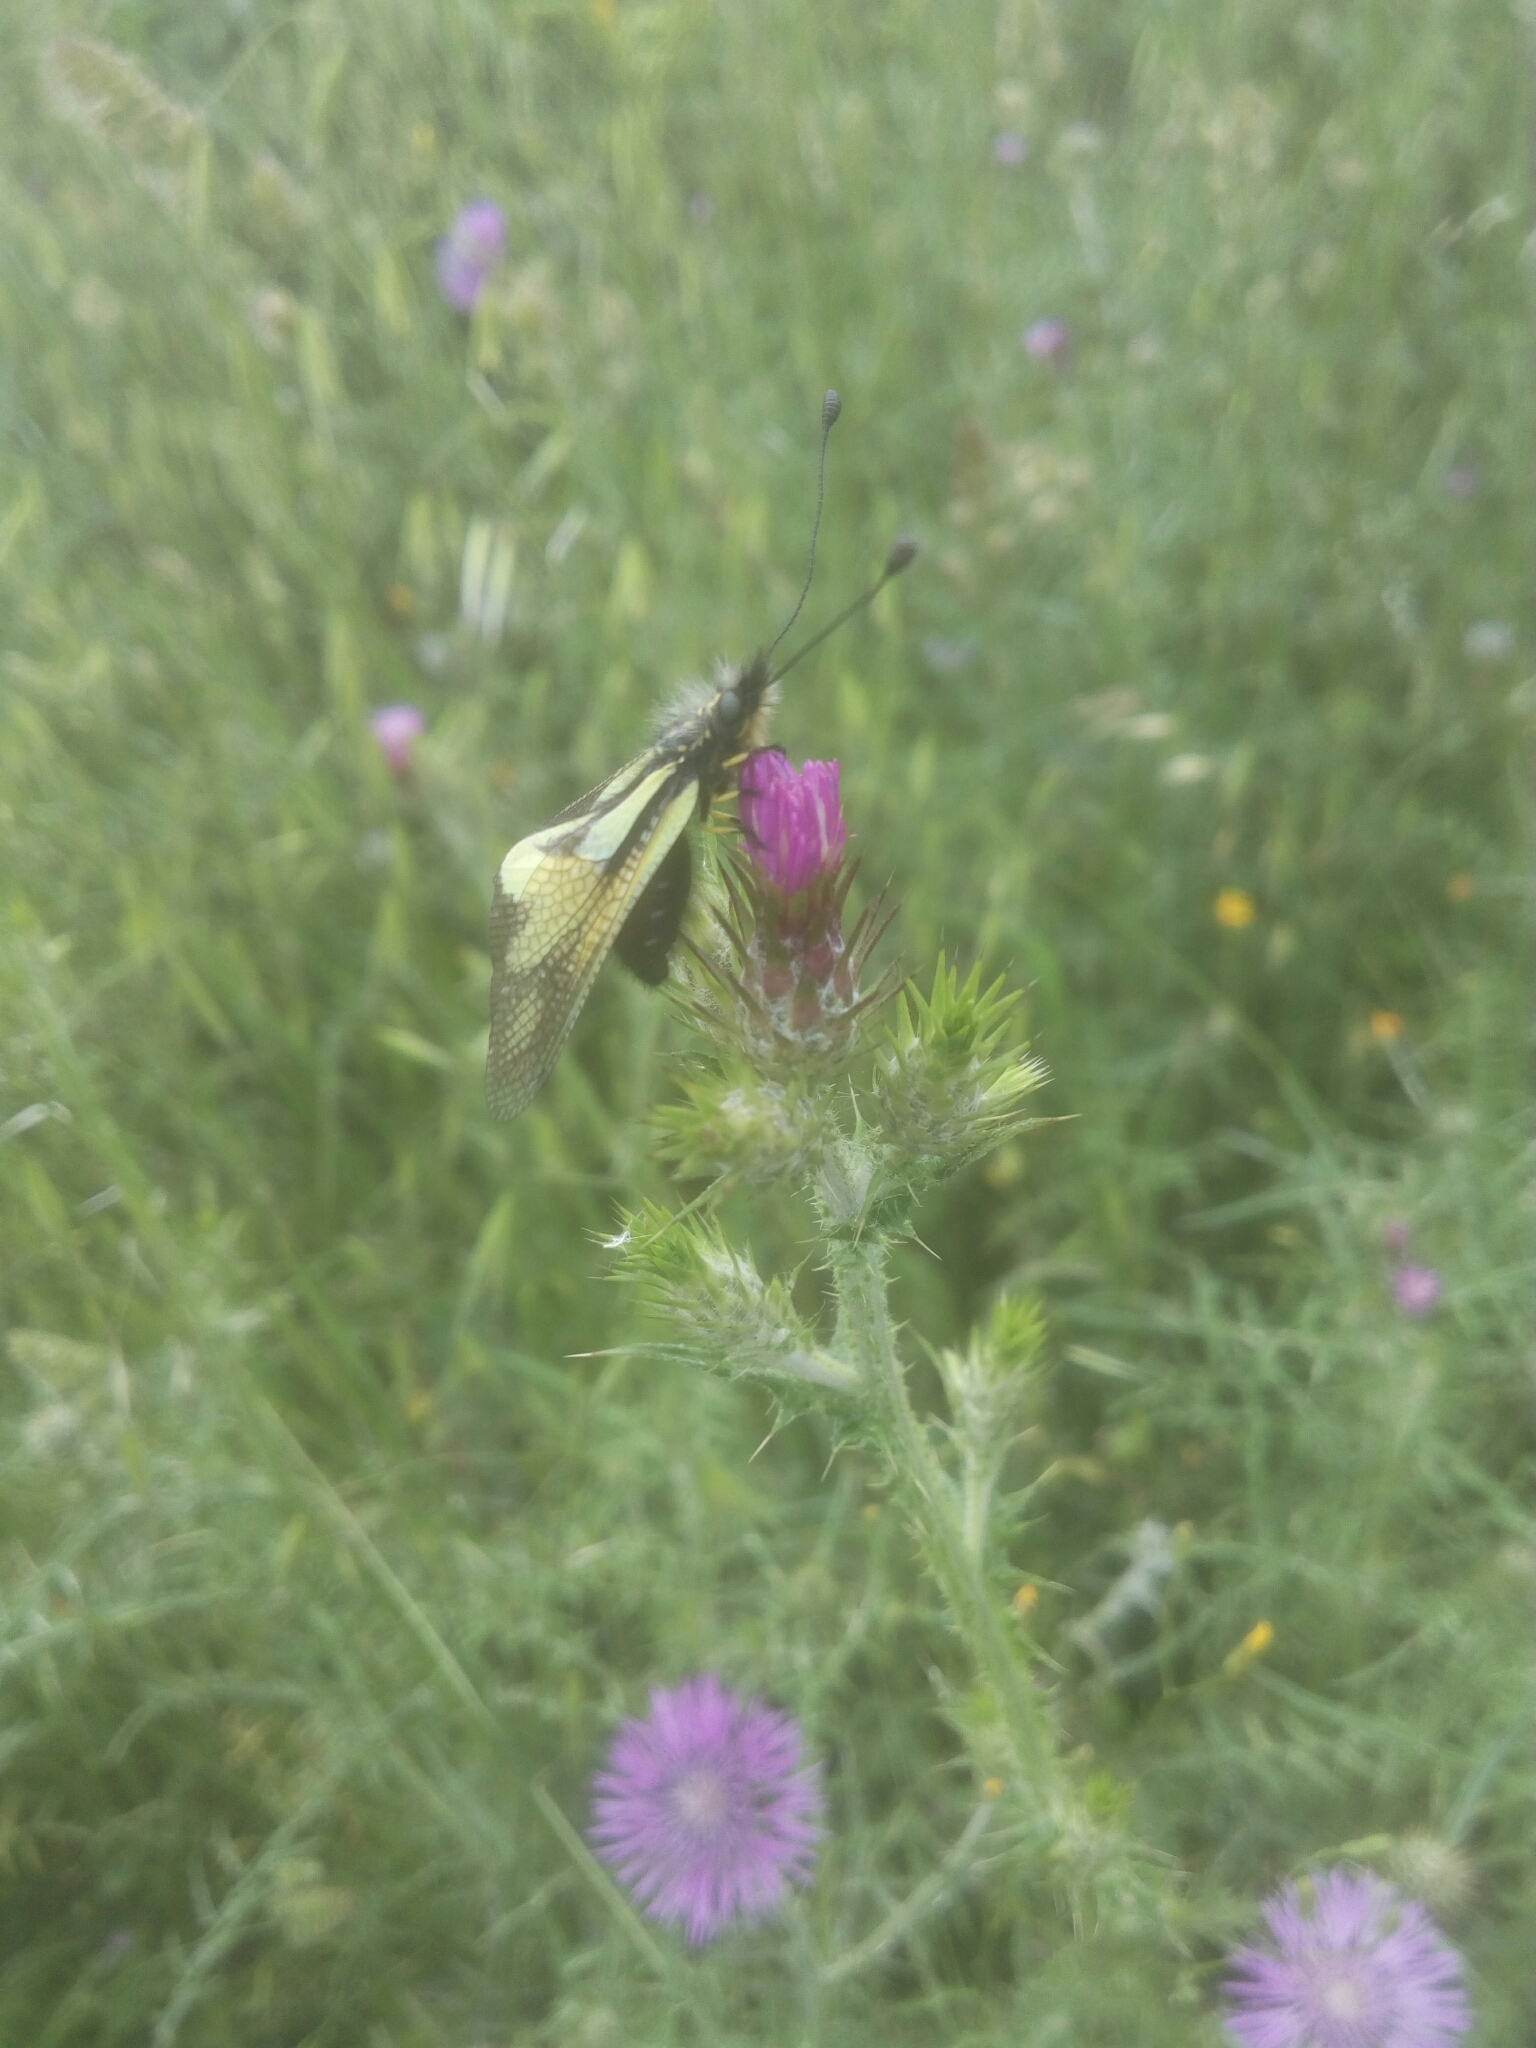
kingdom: Animalia
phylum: Arthropoda
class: Insecta
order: Neuroptera
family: Ascalaphidae
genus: Libelloides
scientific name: Libelloides coccajus
